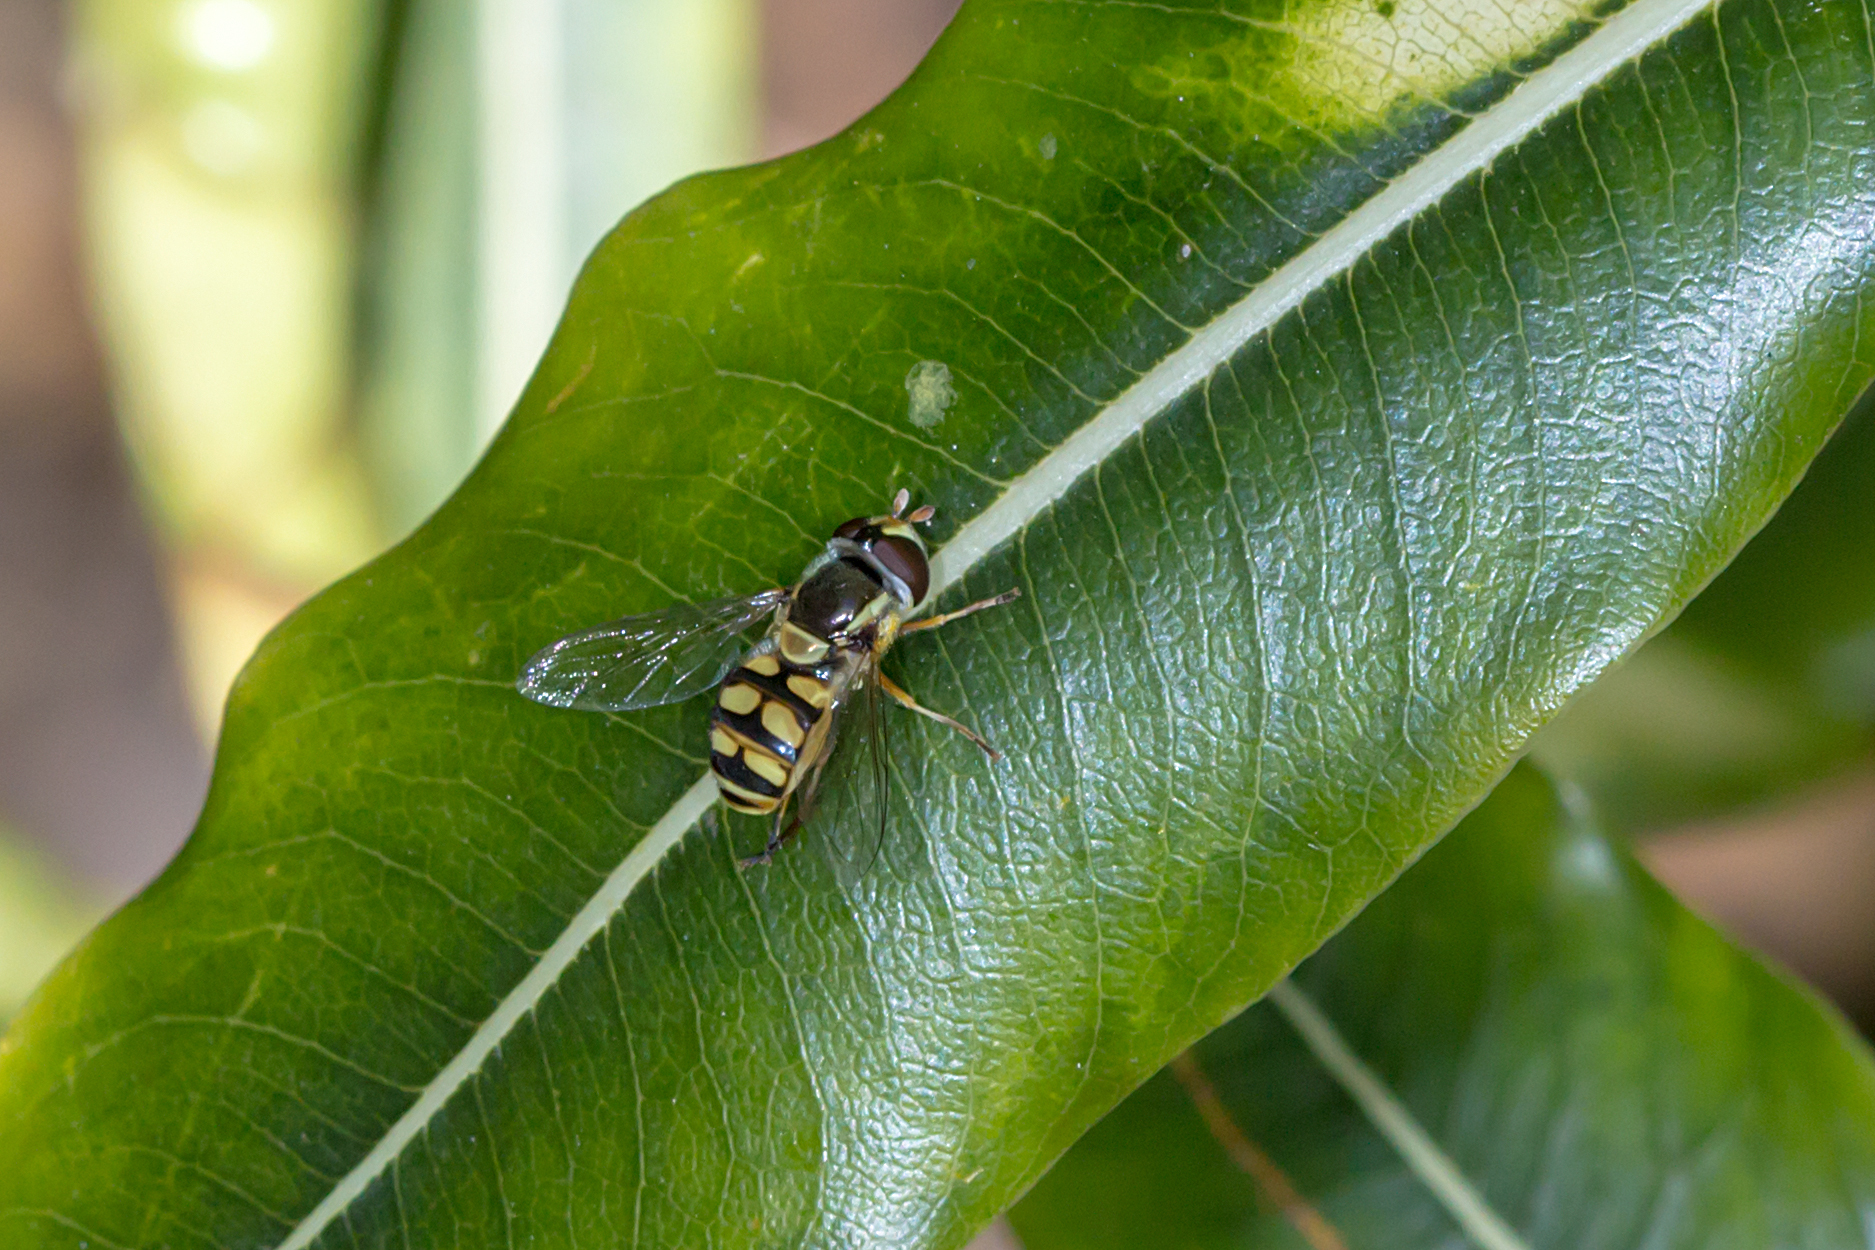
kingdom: Animalia
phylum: Arthropoda
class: Insecta
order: Diptera
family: Syrphidae
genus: Simosyrphus
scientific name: Simosyrphus grandicornis
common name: Hoverfly
